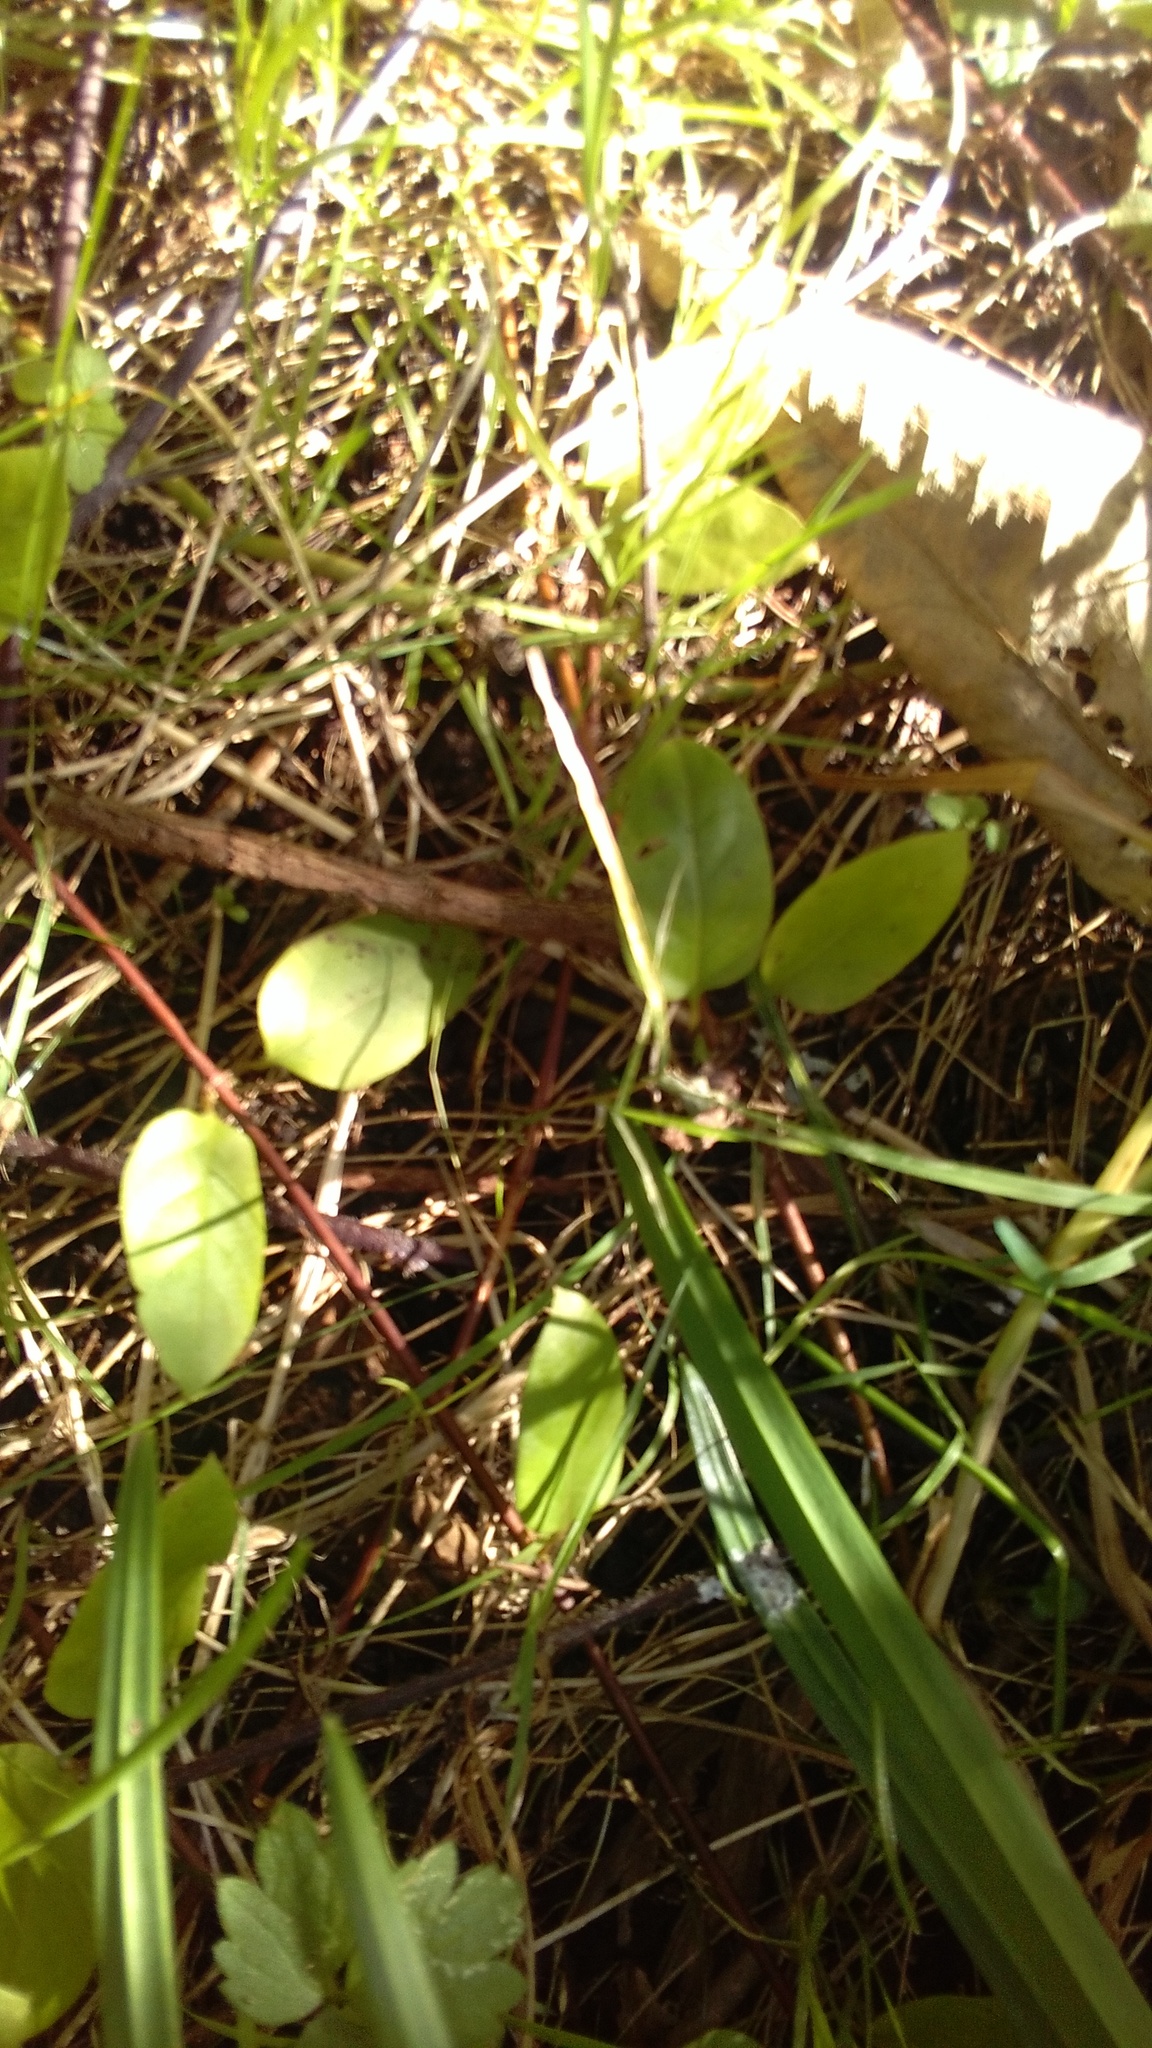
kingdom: Plantae
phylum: Tracheophyta
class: Magnoliopsida
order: Dipsacales
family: Caprifoliaceae
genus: Lonicera
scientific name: Lonicera japonica
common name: Japanese honeysuckle
